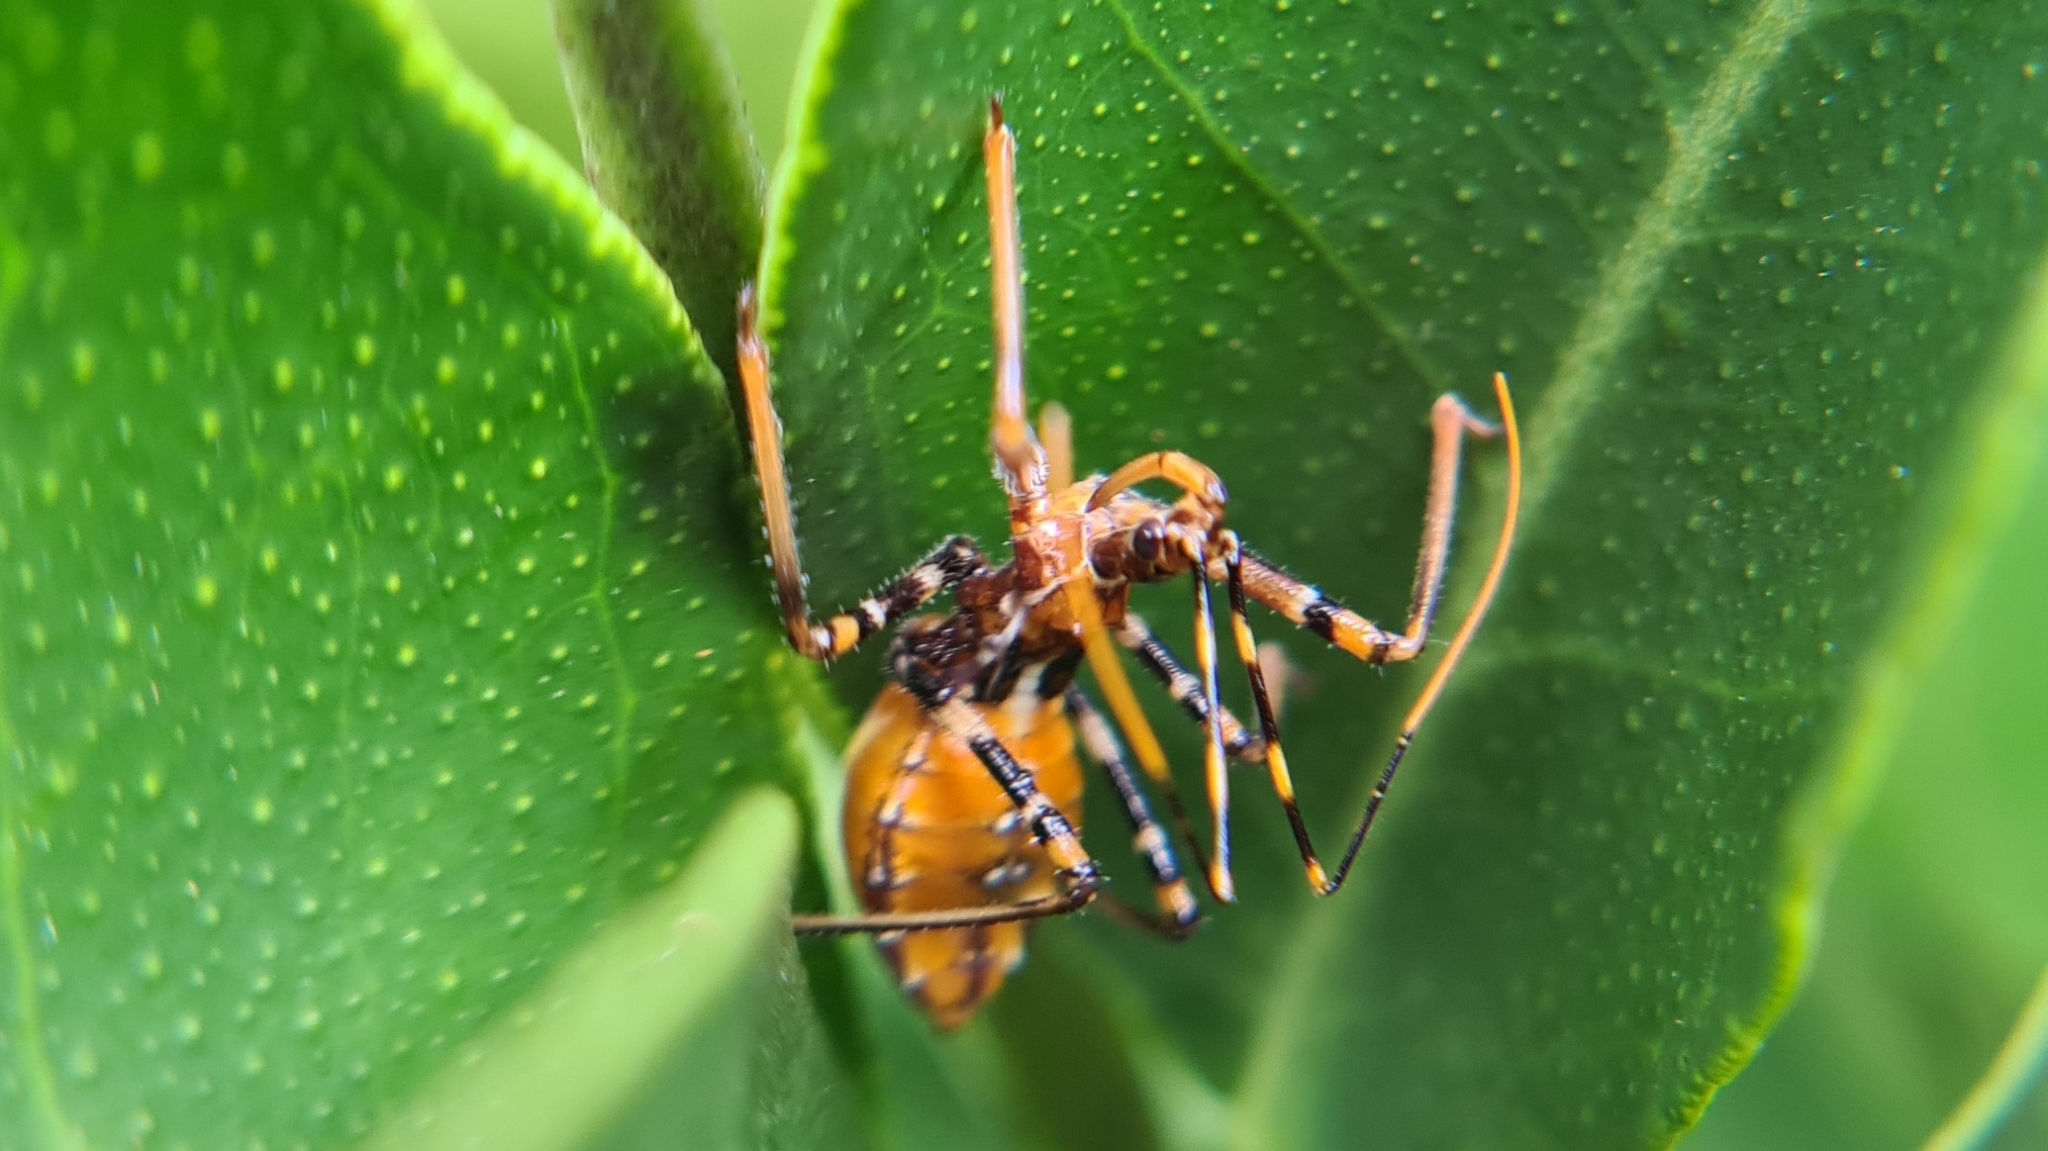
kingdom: Animalia
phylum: Arthropoda
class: Insecta
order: Hemiptera
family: Reduviidae
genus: Pristhesancus
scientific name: Pristhesancus plagipennis
